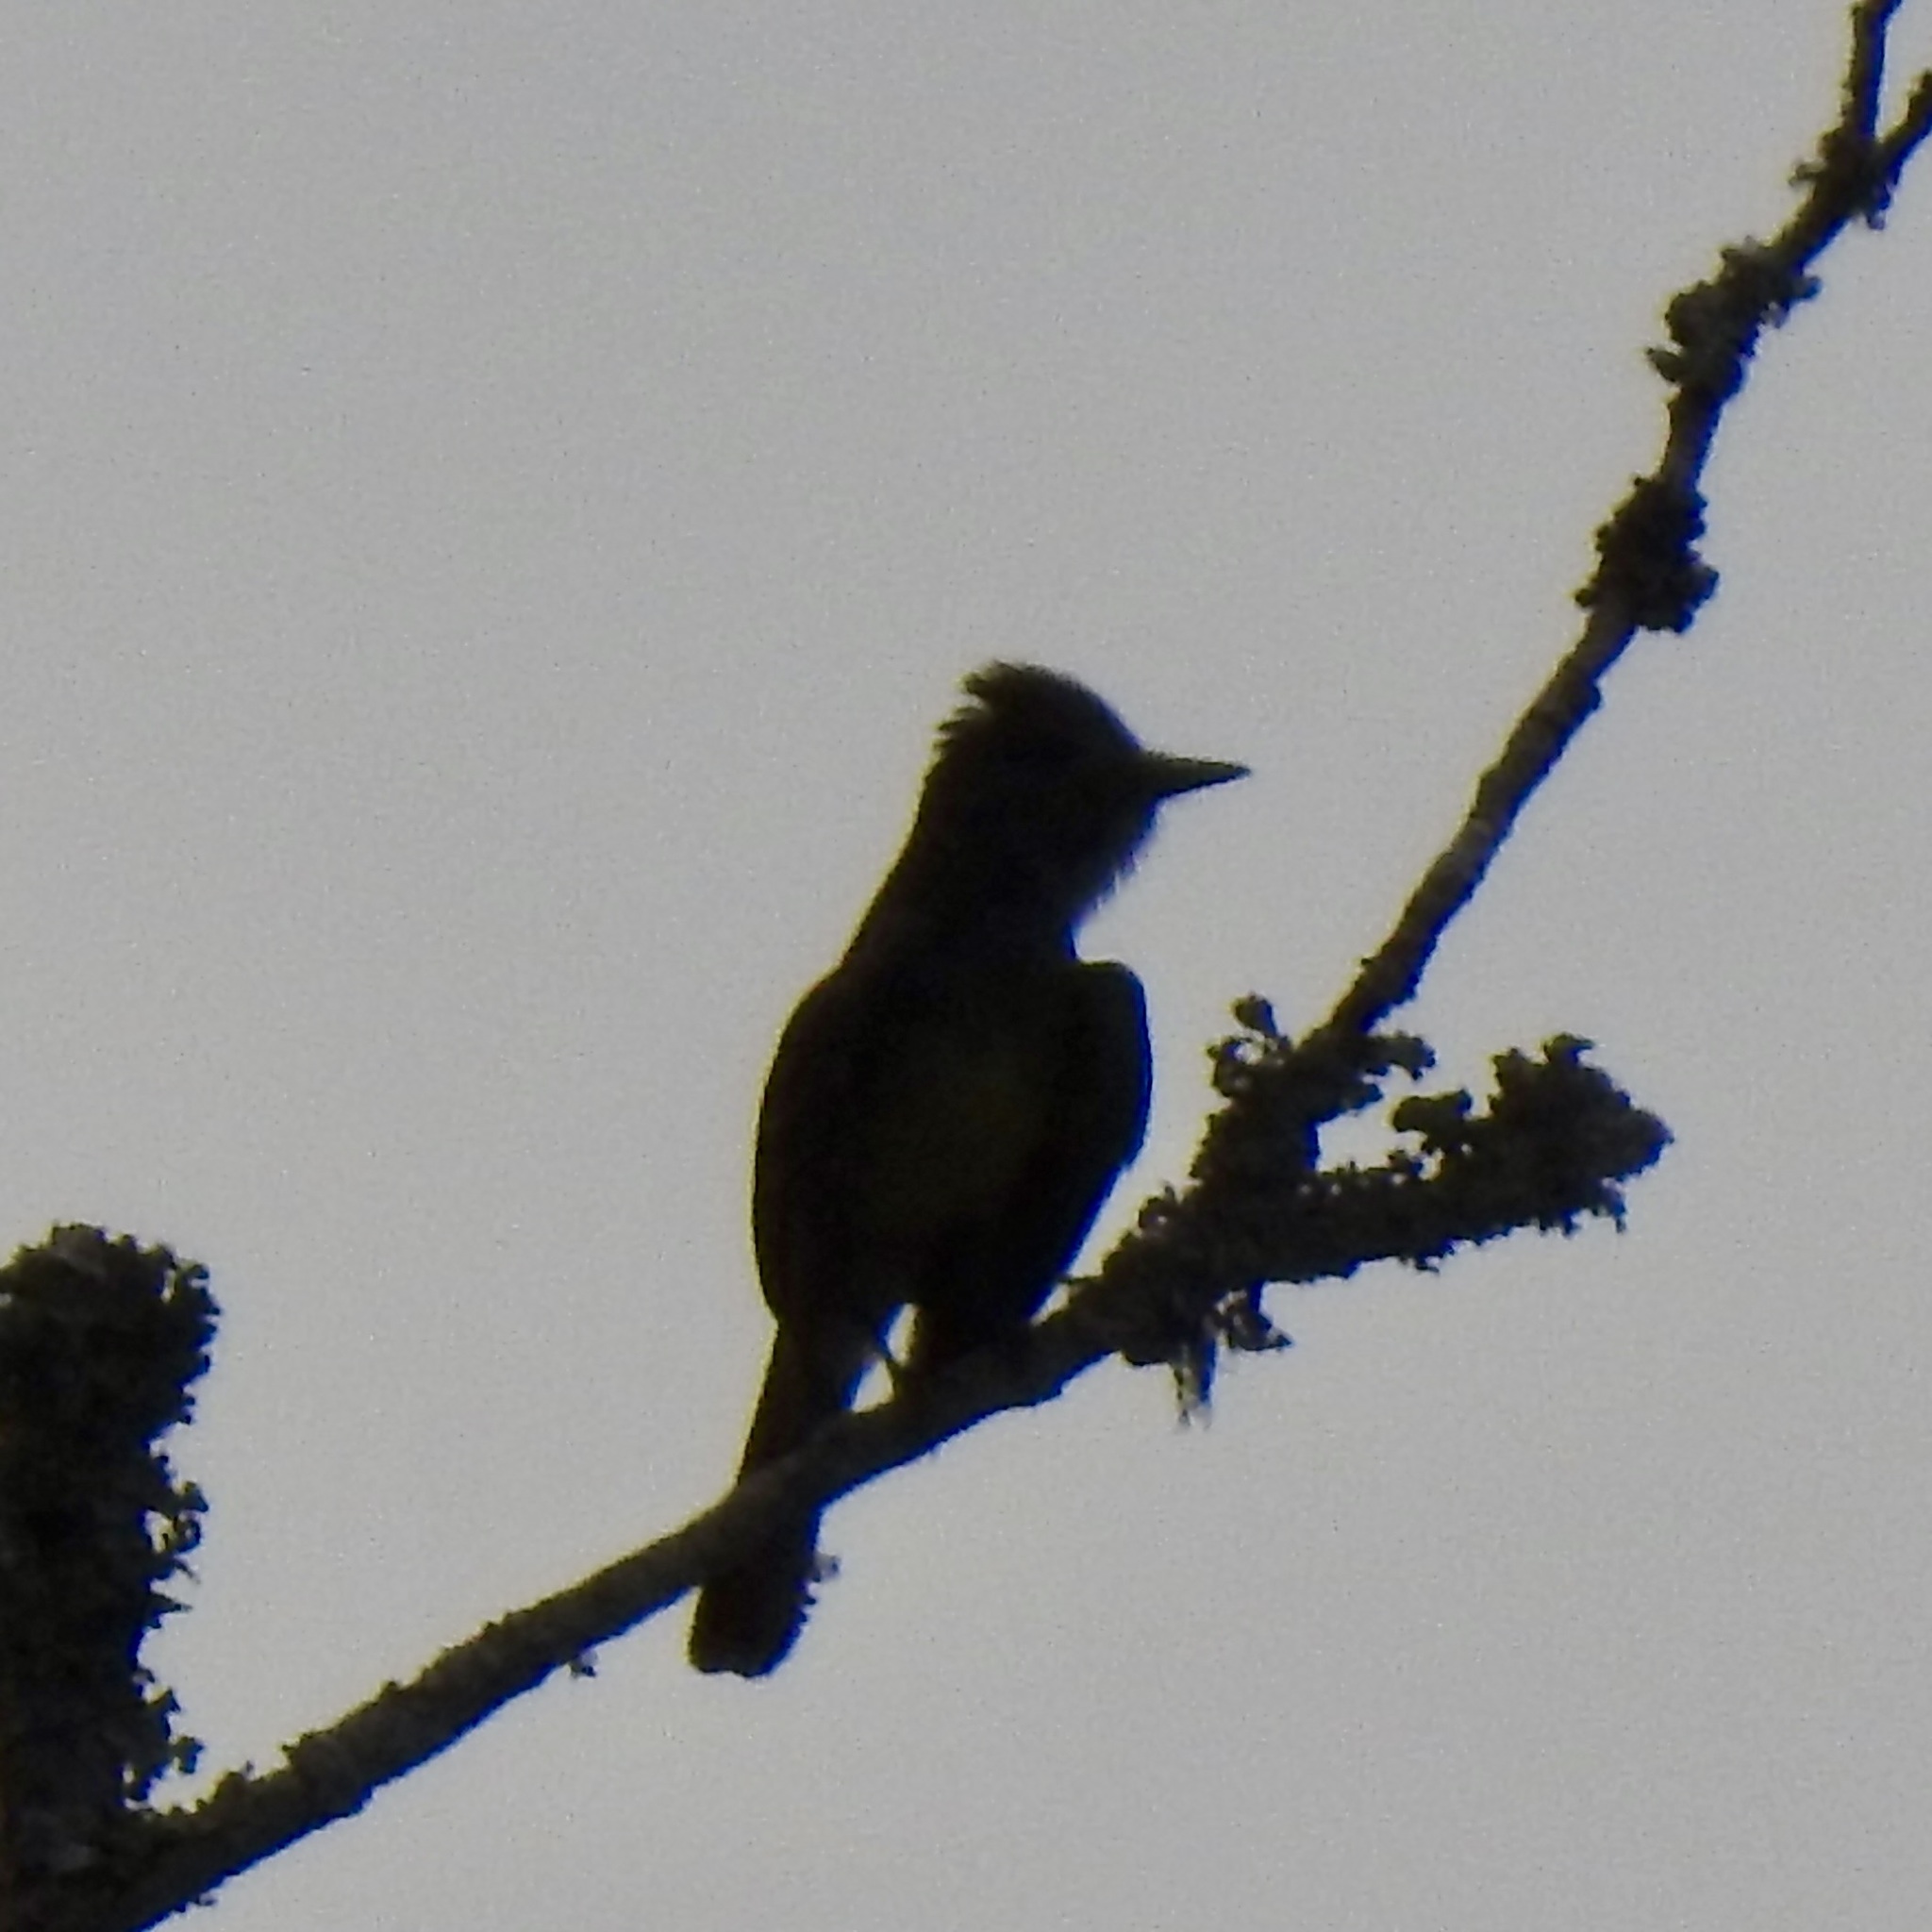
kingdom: Animalia
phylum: Chordata
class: Aves
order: Passeriformes
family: Tyrannidae
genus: Myiarchus
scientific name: Myiarchus crinitus
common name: Great crested flycatcher
